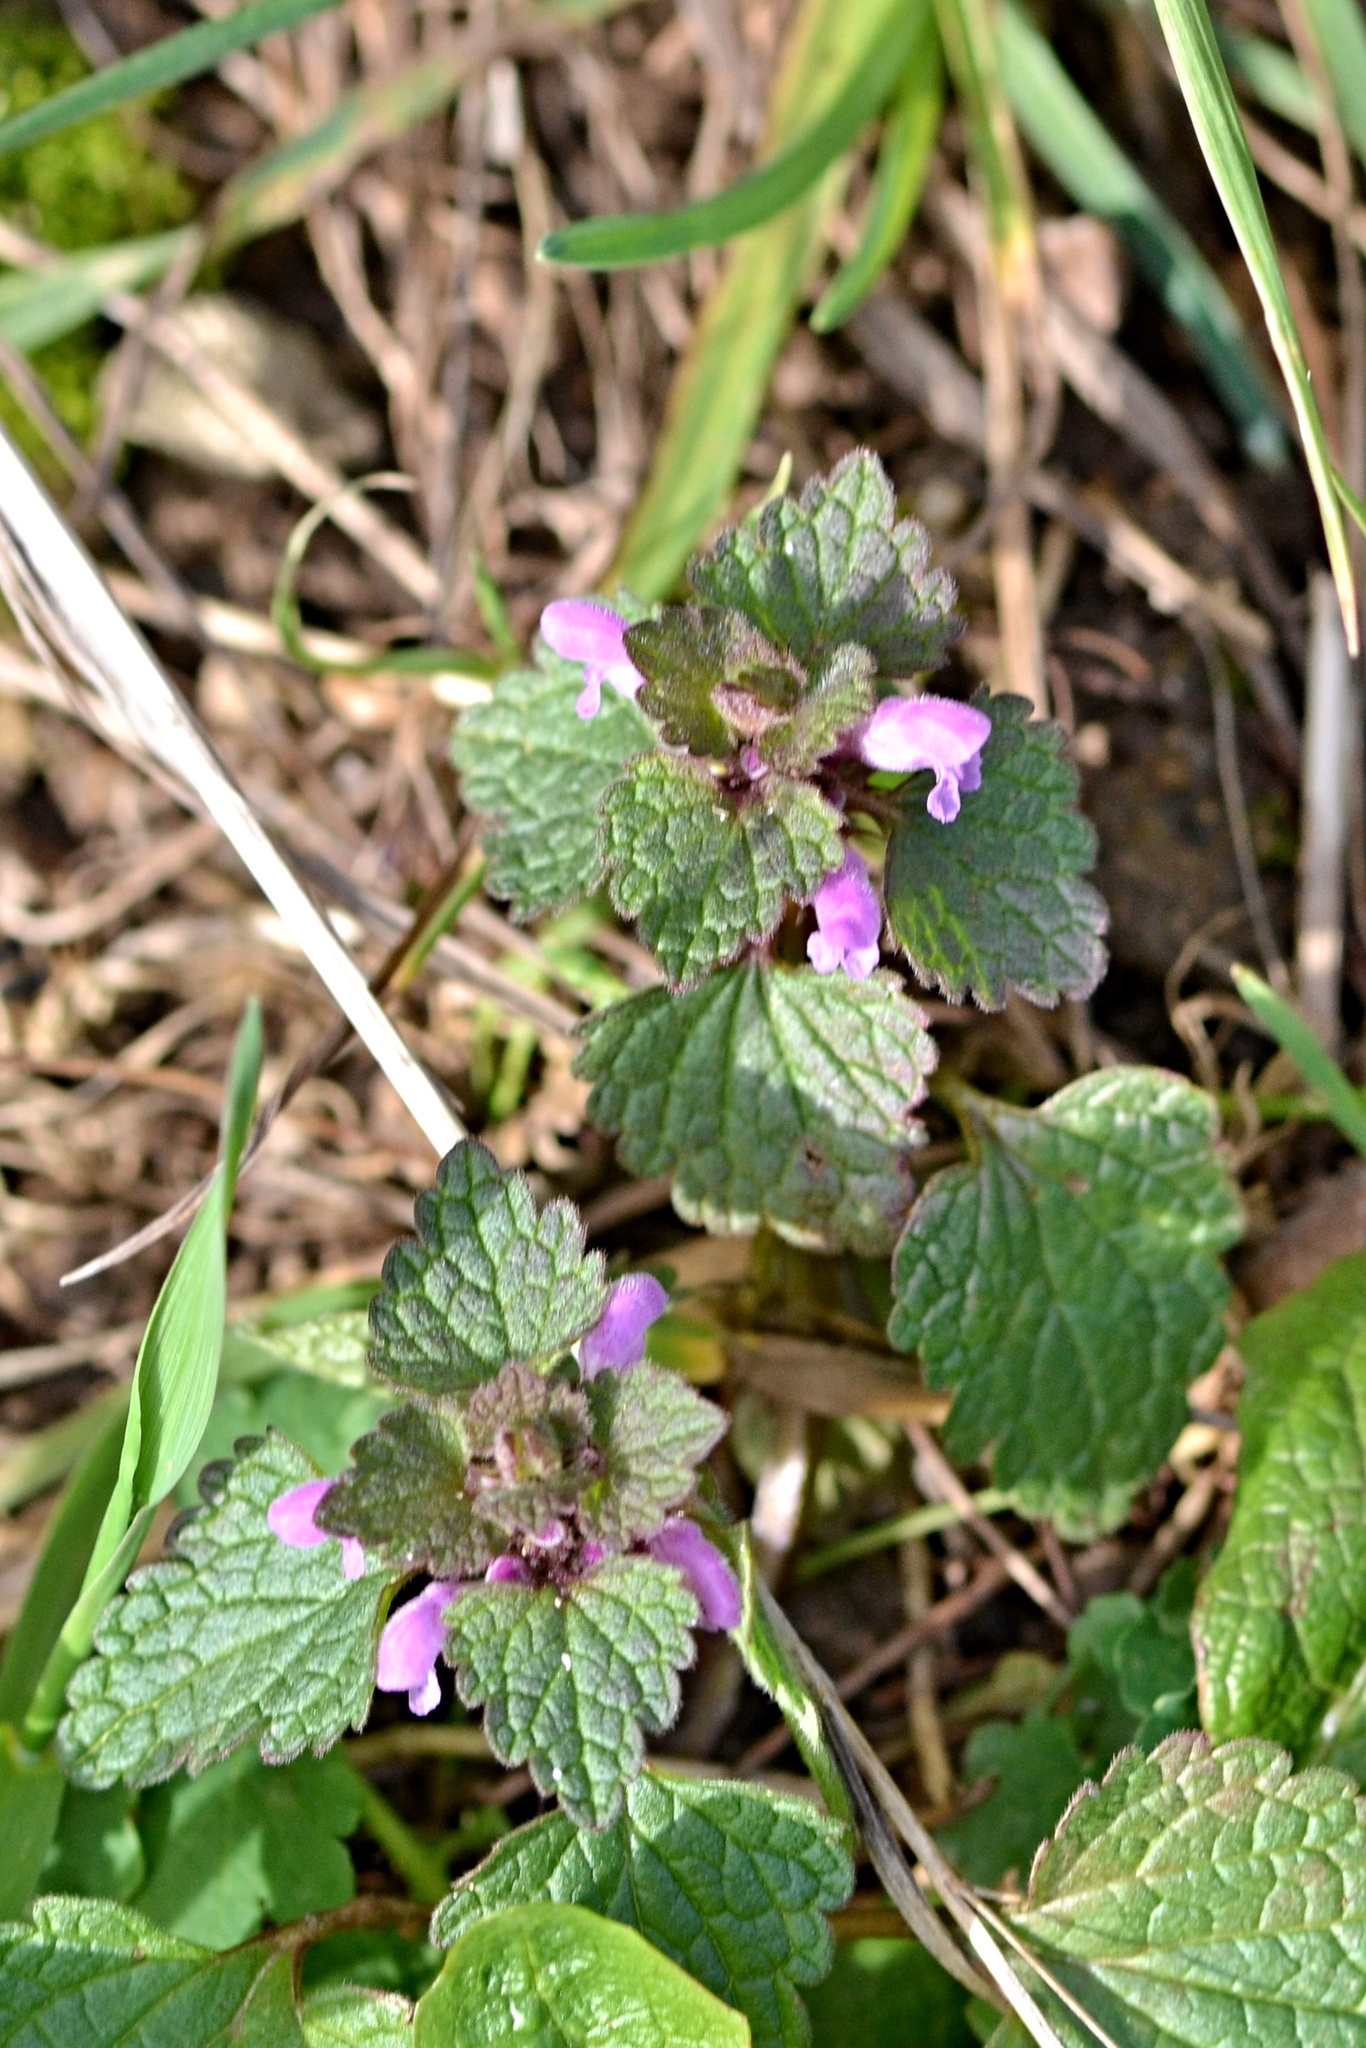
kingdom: Plantae
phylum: Tracheophyta
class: Magnoliopsida
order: Lamiales
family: Lamiaceae
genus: Lamium
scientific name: Lamium purpureum
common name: Red dead-nettle
